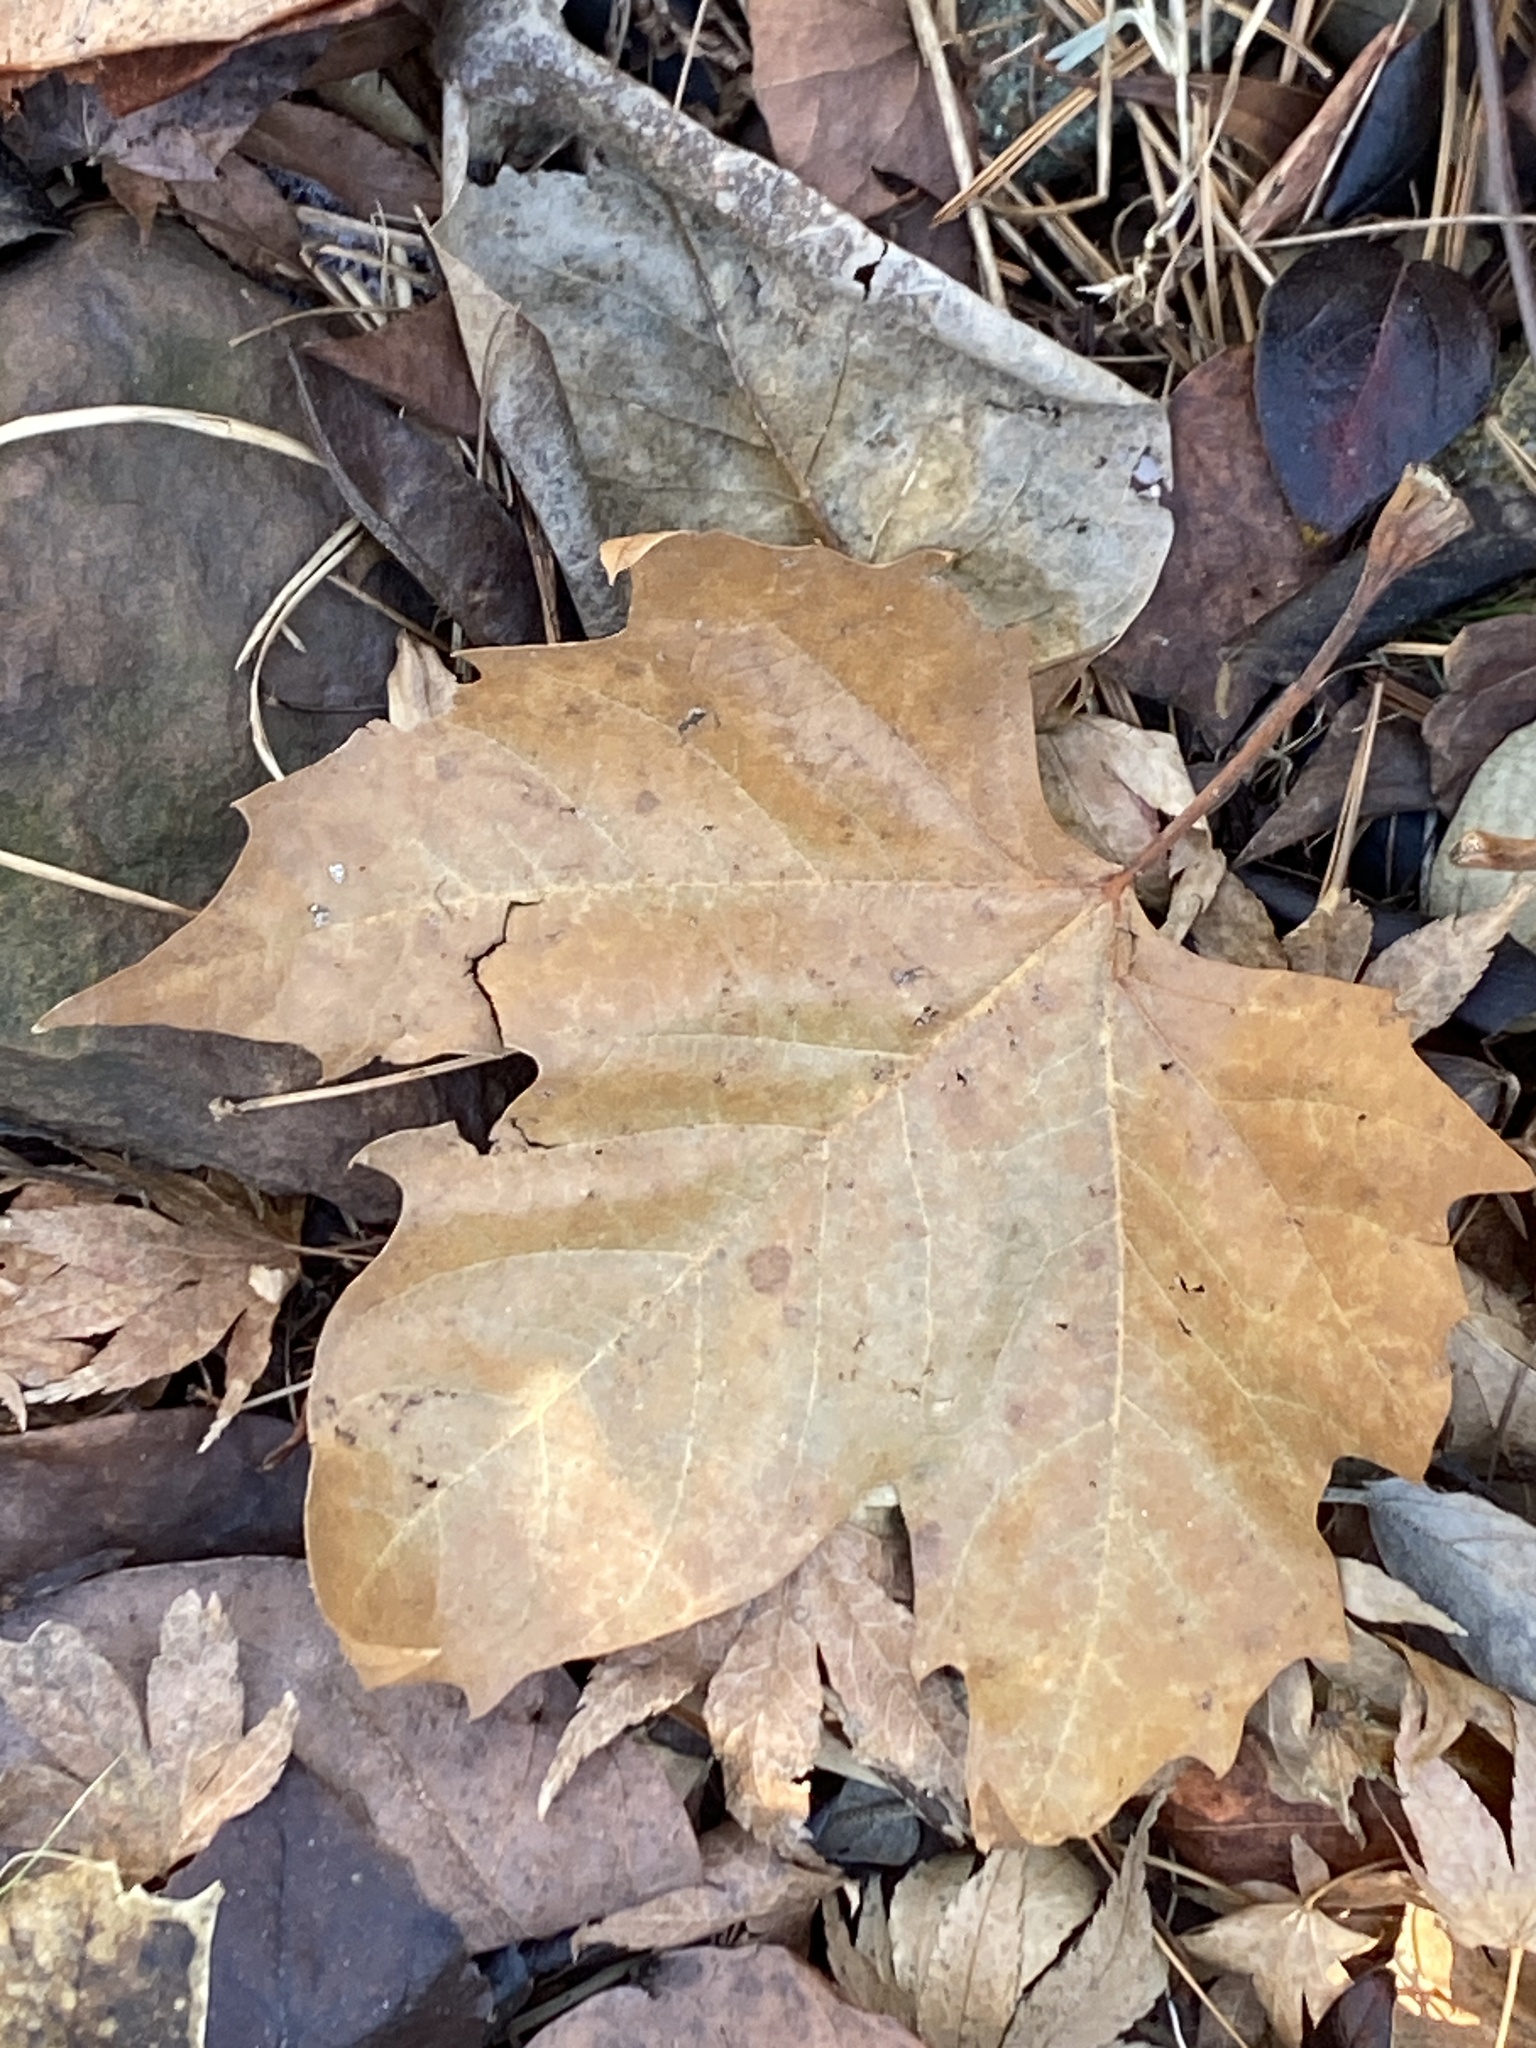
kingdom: Plantae
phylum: Tracheophyta
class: Magnoliopsida
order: Proteales
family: Platanaceae
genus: Platanus
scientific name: Platanus occidentalis
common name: American sycamore
